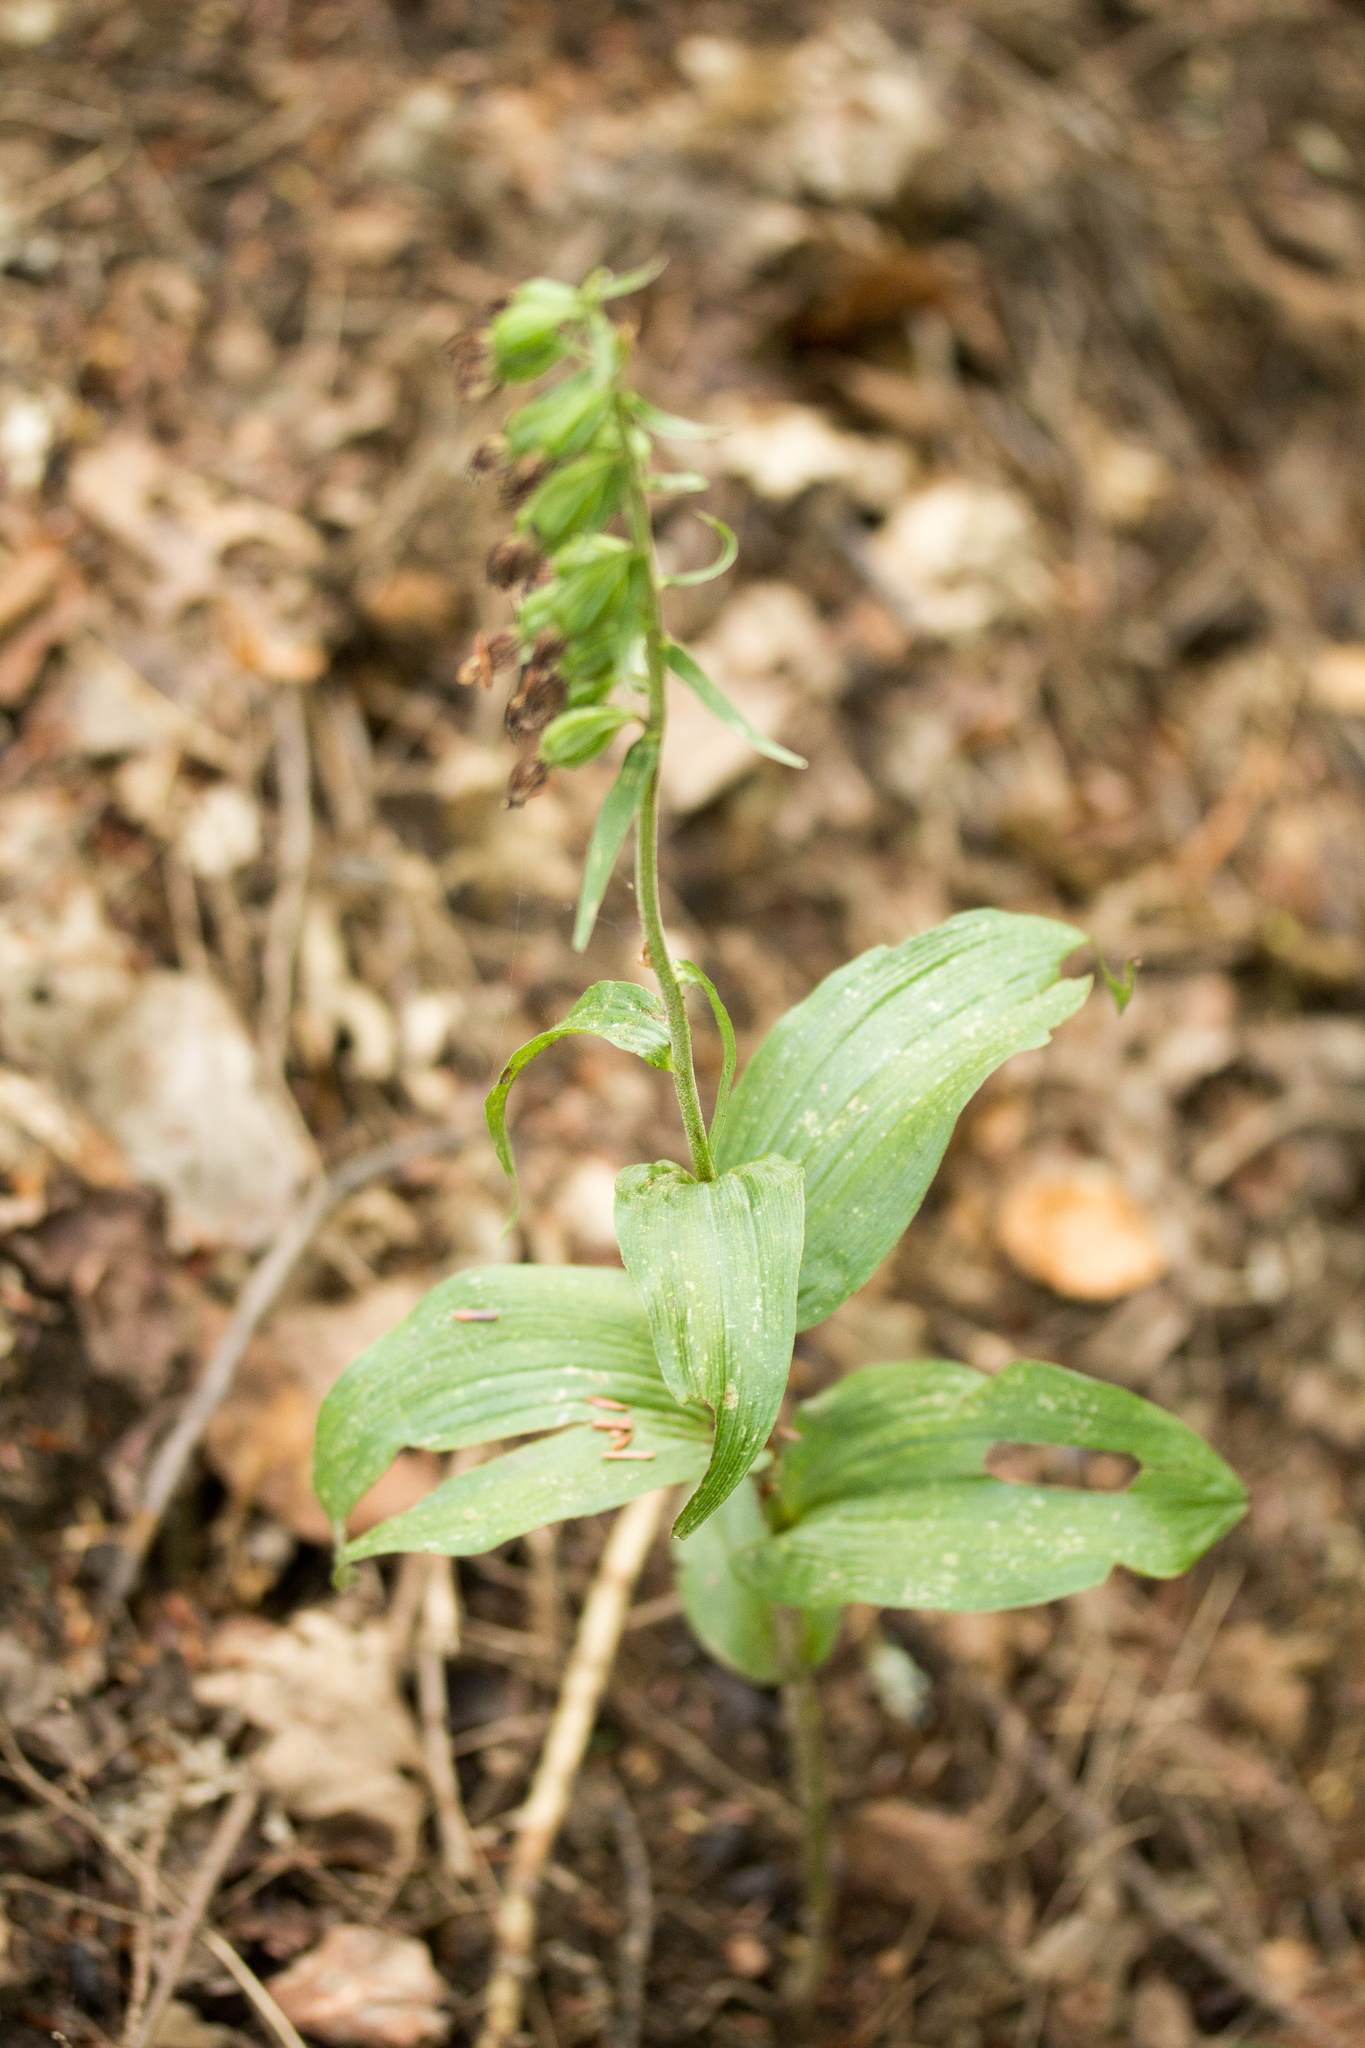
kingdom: Plantae
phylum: Tracheophyta
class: Liliopsida
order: Asparagales
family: Orchidaceae
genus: Epipactis
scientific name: Epipactis helleborine
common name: Broad-leaved helleborine
